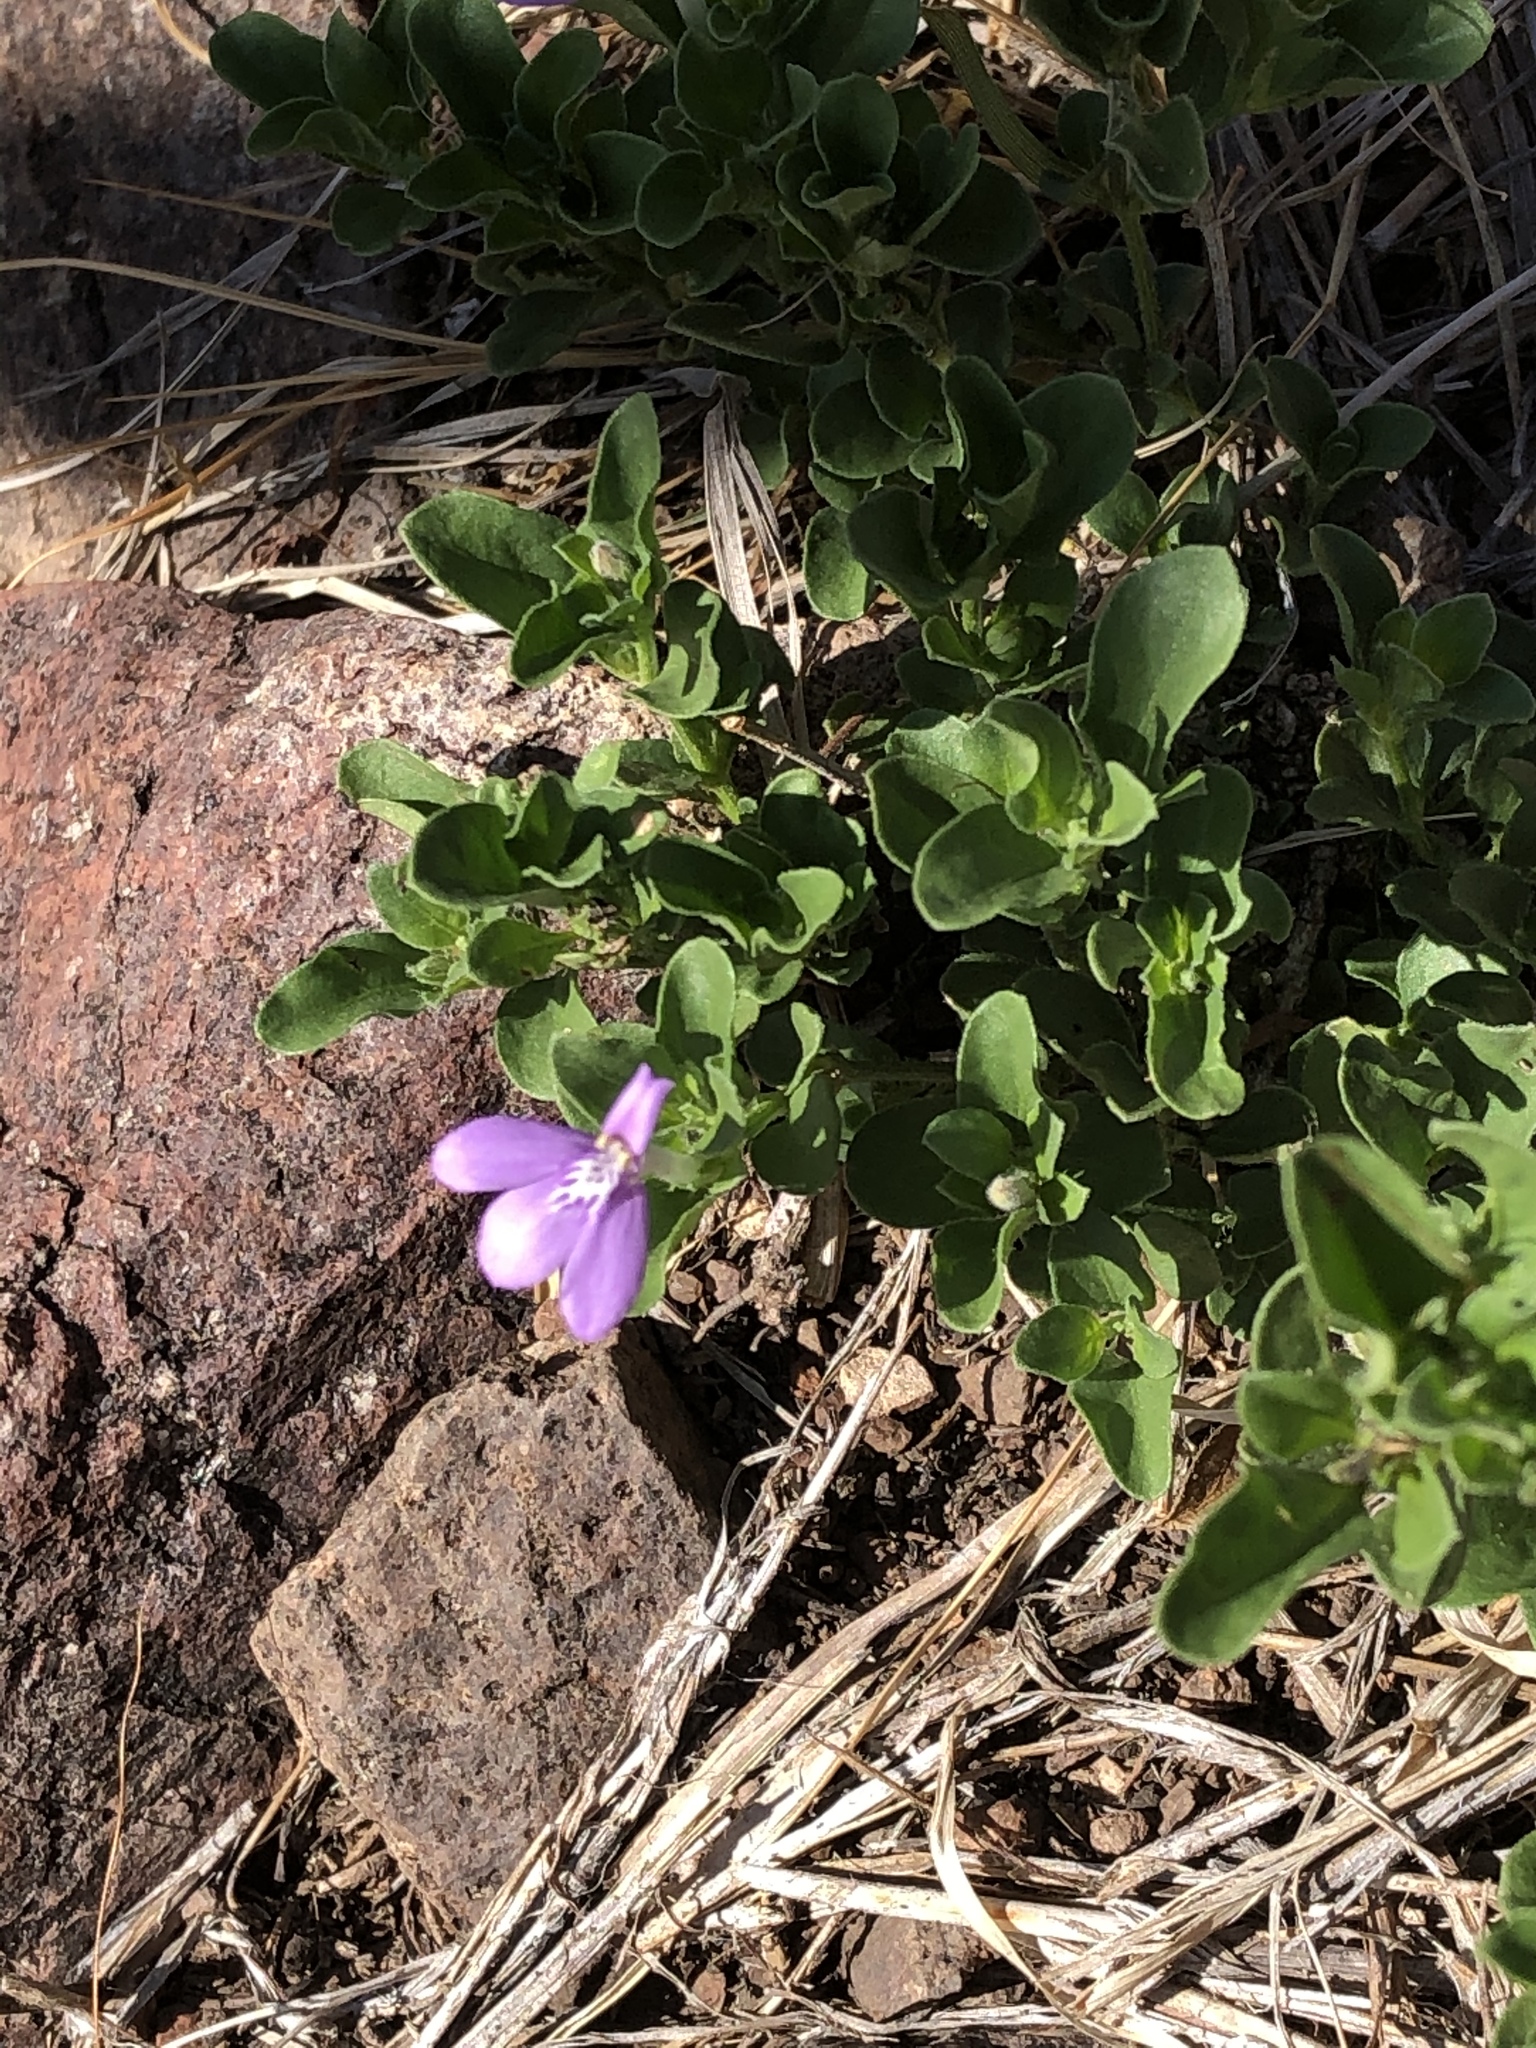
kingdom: Plantae
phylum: Tracheophyta
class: Magnoliopsida
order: Lamiales
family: Acanthaceae
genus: Justicia
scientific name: Justicia pilosella
